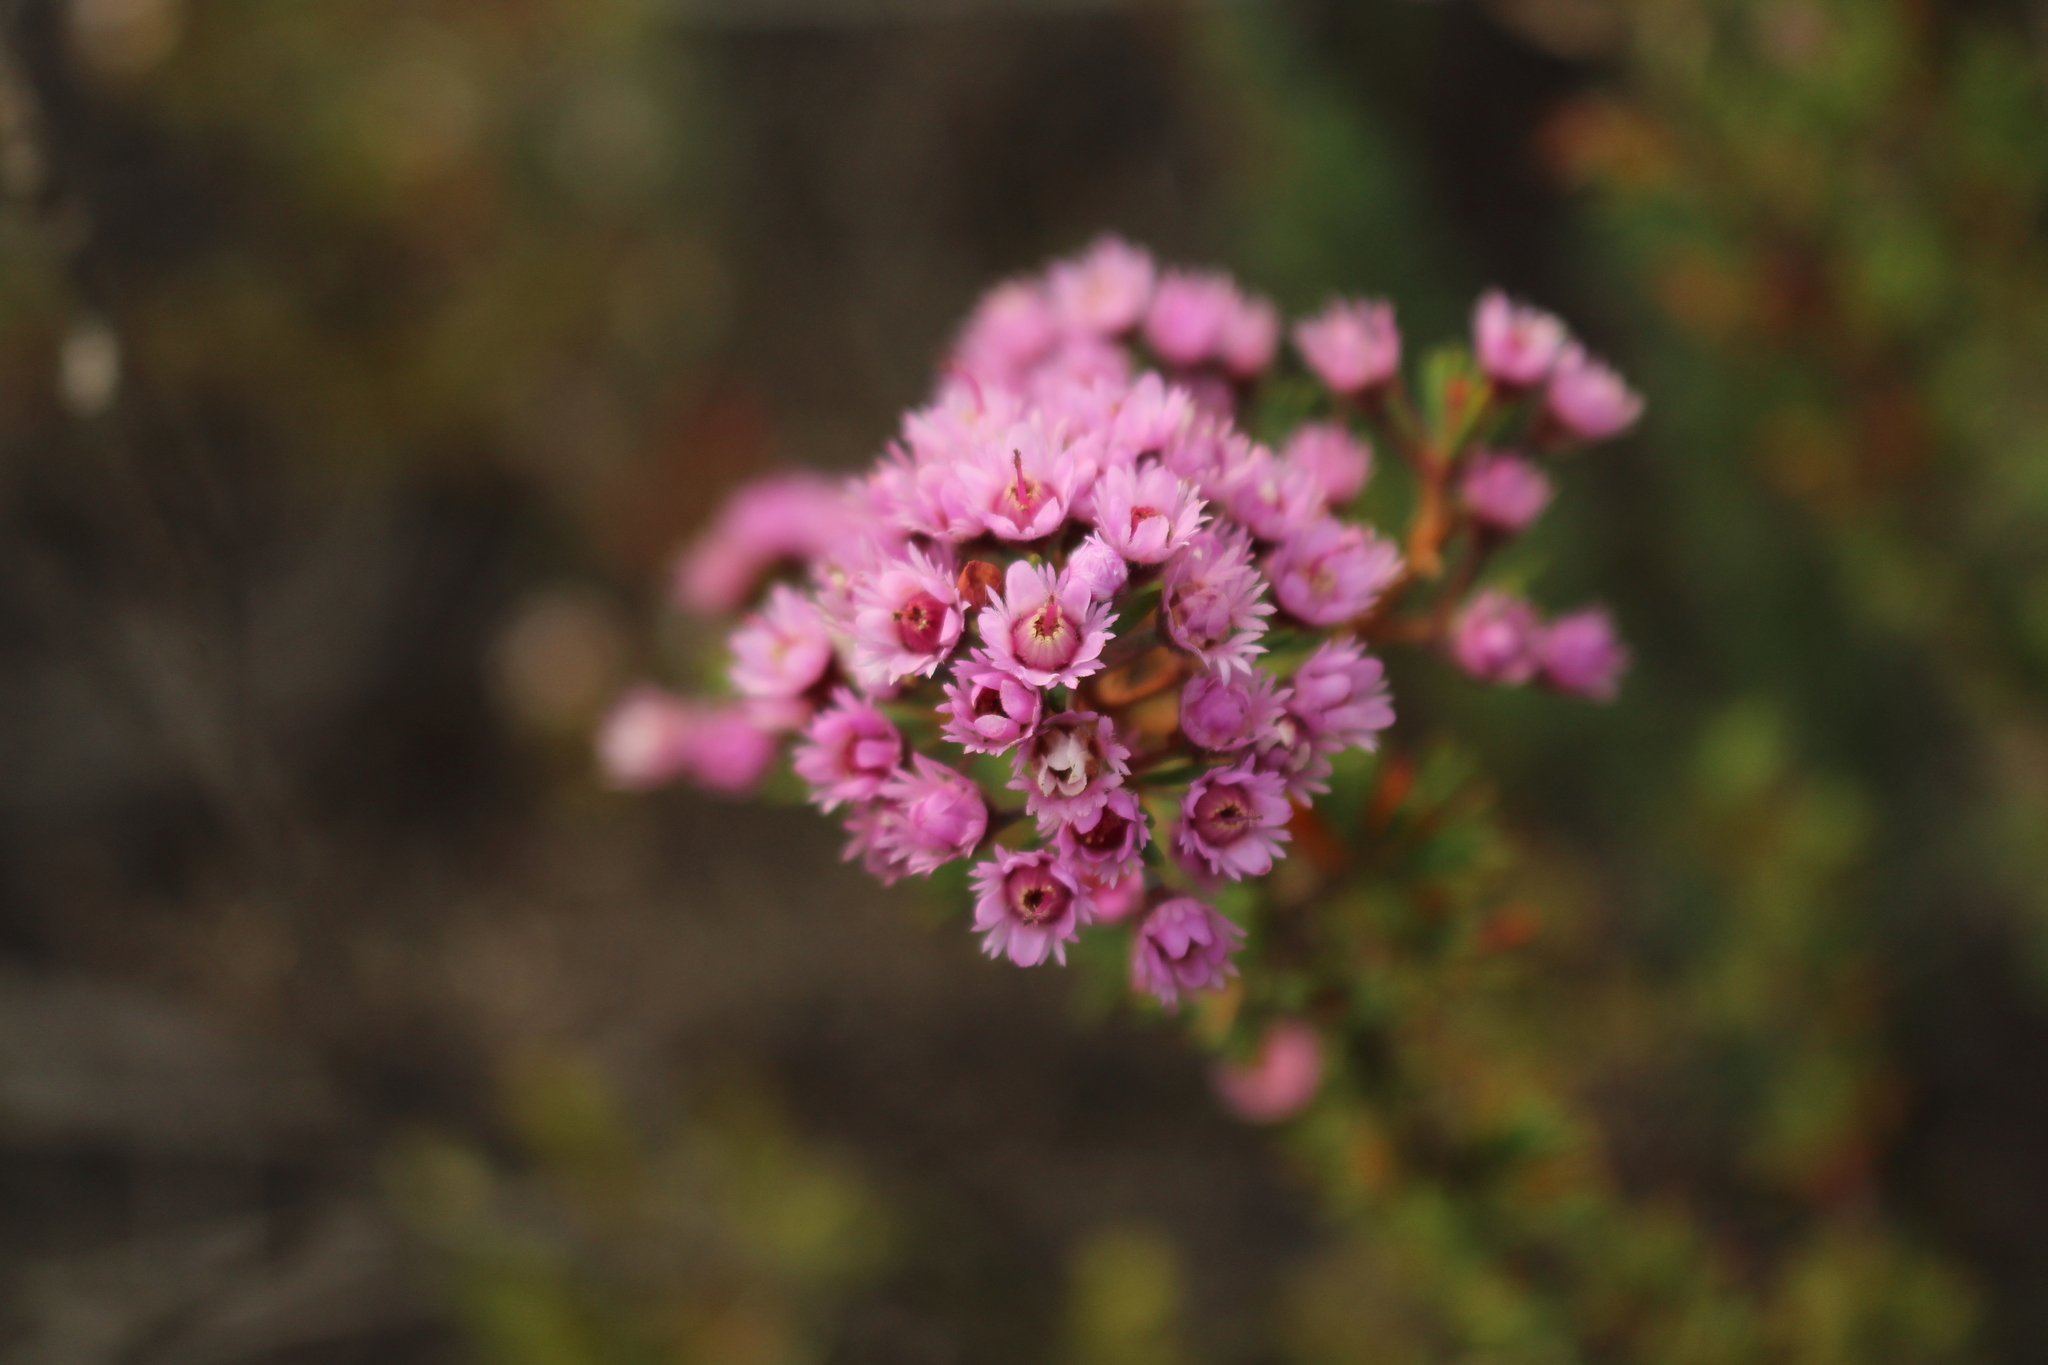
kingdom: Plantae
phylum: Tracheophyta
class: Magnoliopsida
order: Myrtales
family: Myrtaceae
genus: Verticordia
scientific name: Verticordia plumosa
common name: Plume feather-flower
